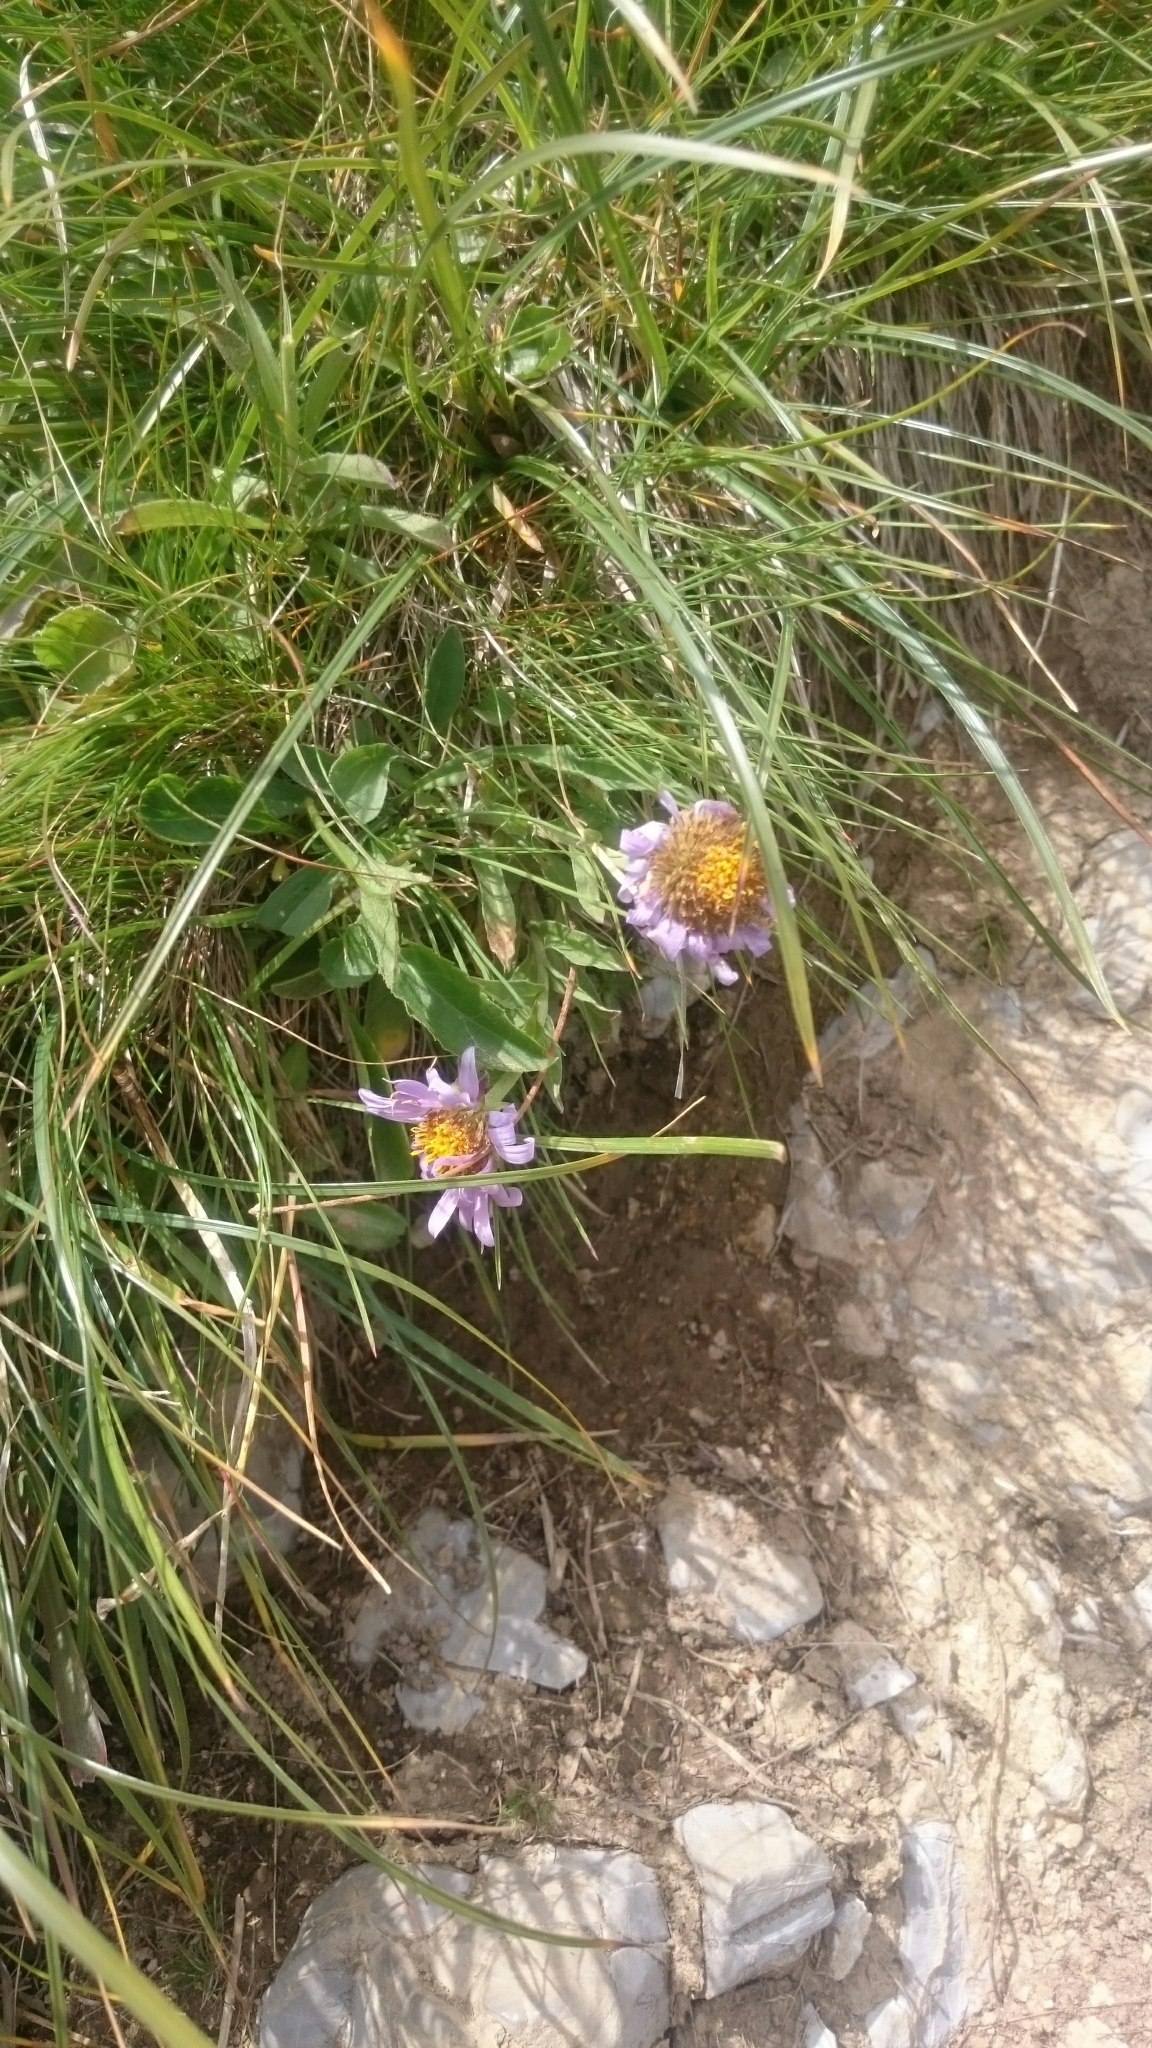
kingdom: Plantae
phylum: Tracheophyta
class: Magnoliopsida
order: Asterales
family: Asteraceae
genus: Aster
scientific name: Aster alpinus
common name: Alpine aster
